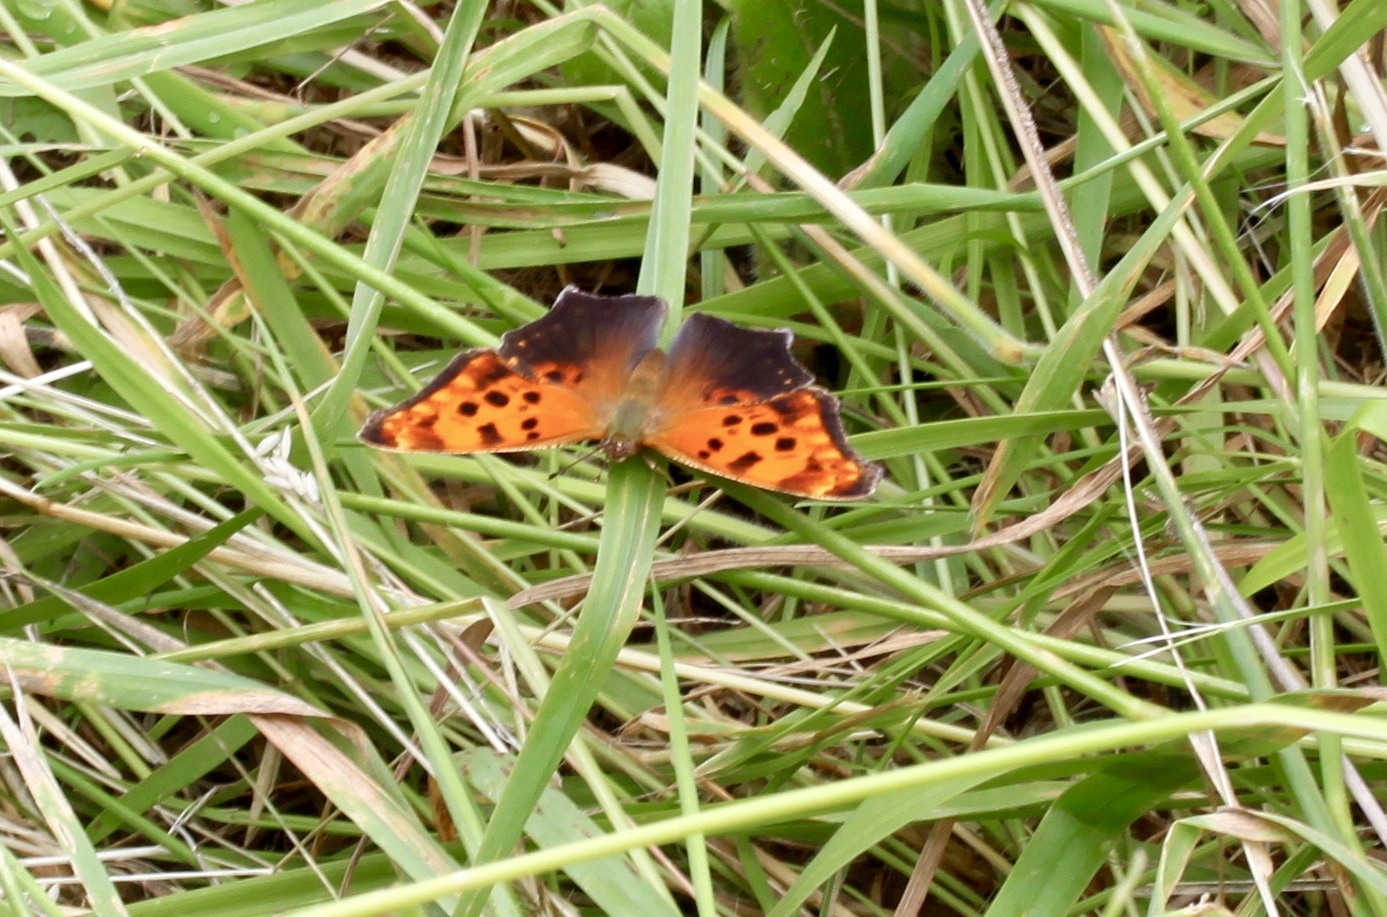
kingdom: Animalia
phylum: Arthropoda
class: Insecta
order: Lepidoptera
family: Nymphalidae
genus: Polygonia
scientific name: Polygonia comma
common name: Eastern comma
